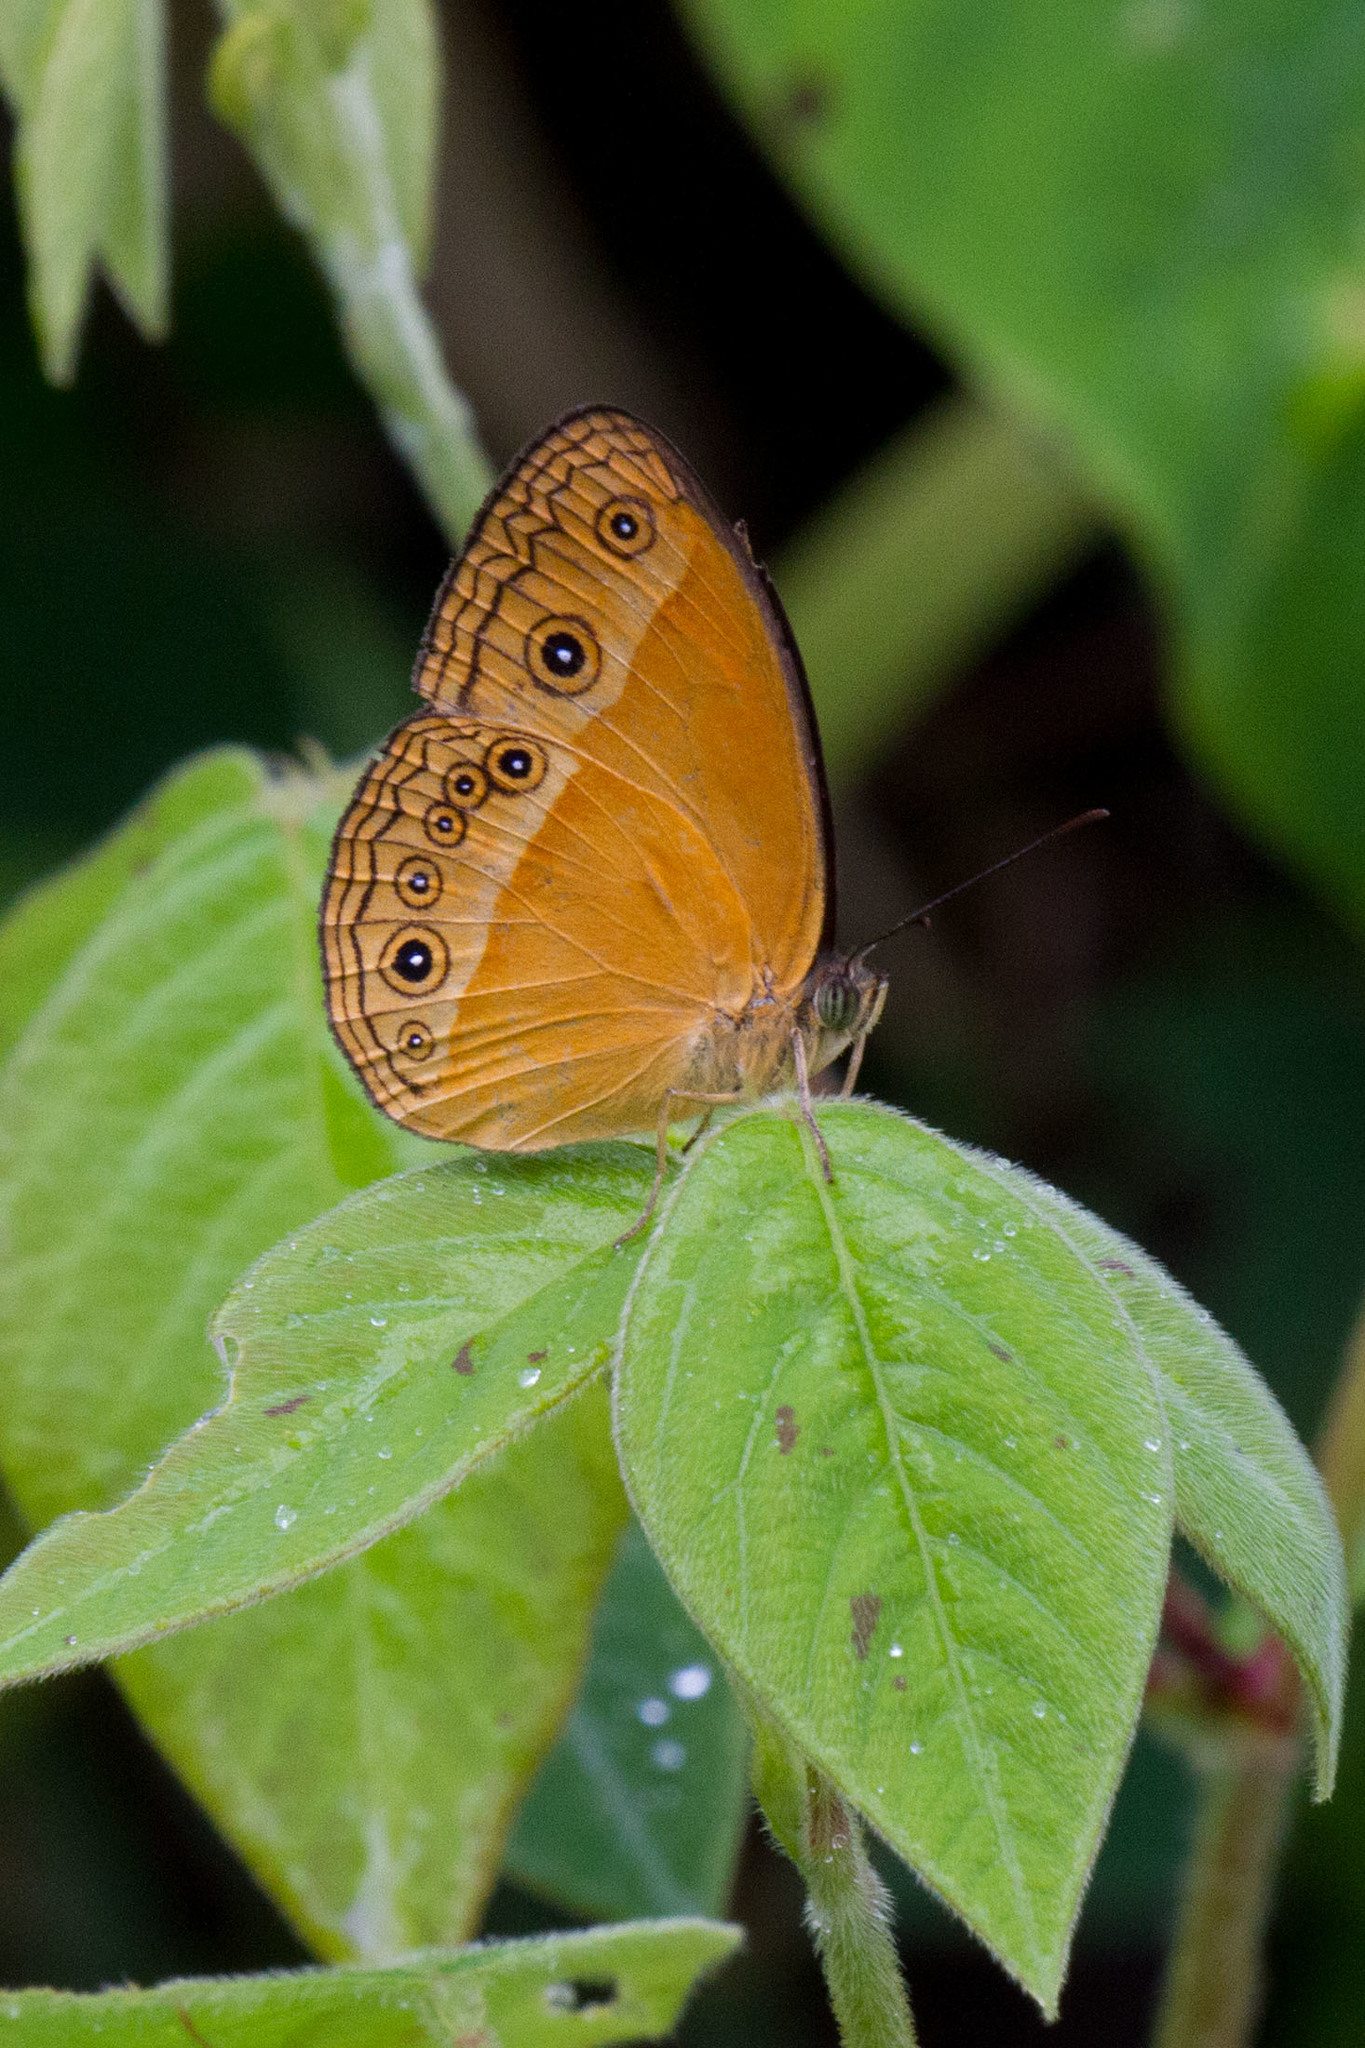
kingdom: Animalia
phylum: Arthropoda
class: Insecta
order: Lepidoptera
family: Nymphalidae
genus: Mycalesis
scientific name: Mycalesis phidon
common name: Hewitson's bushbrown
